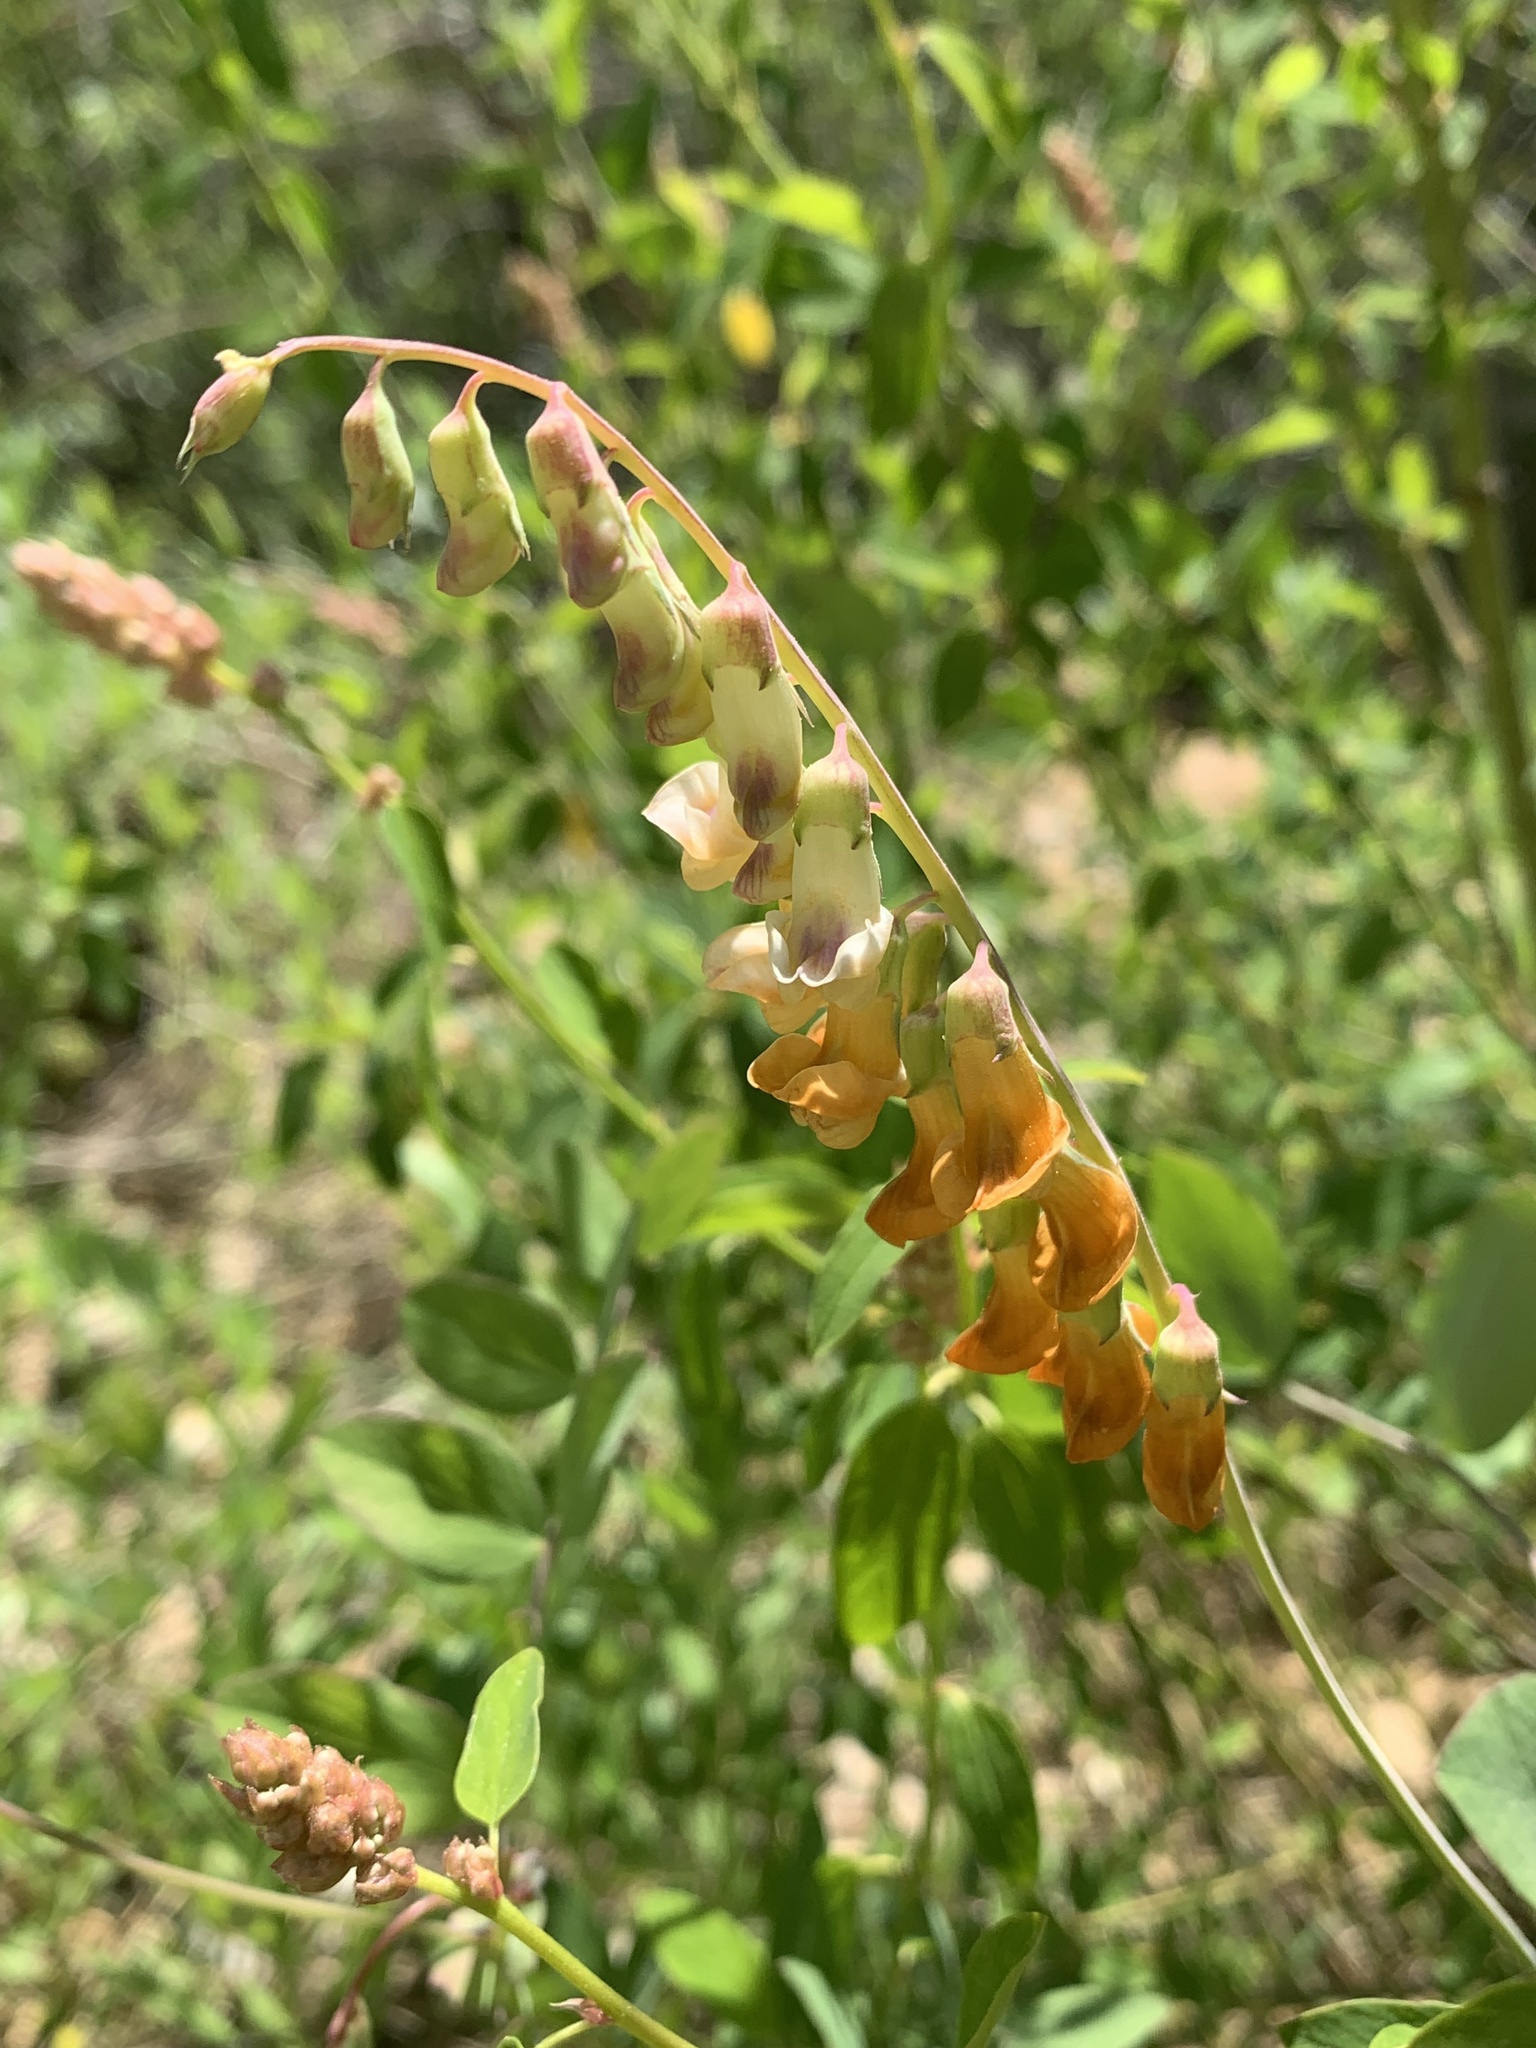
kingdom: Plantae
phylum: Tracheophyta
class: Magnoliopsida
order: Fabales
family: Fabaceae
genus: Lathyrus
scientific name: Lathyrus sulphureus
